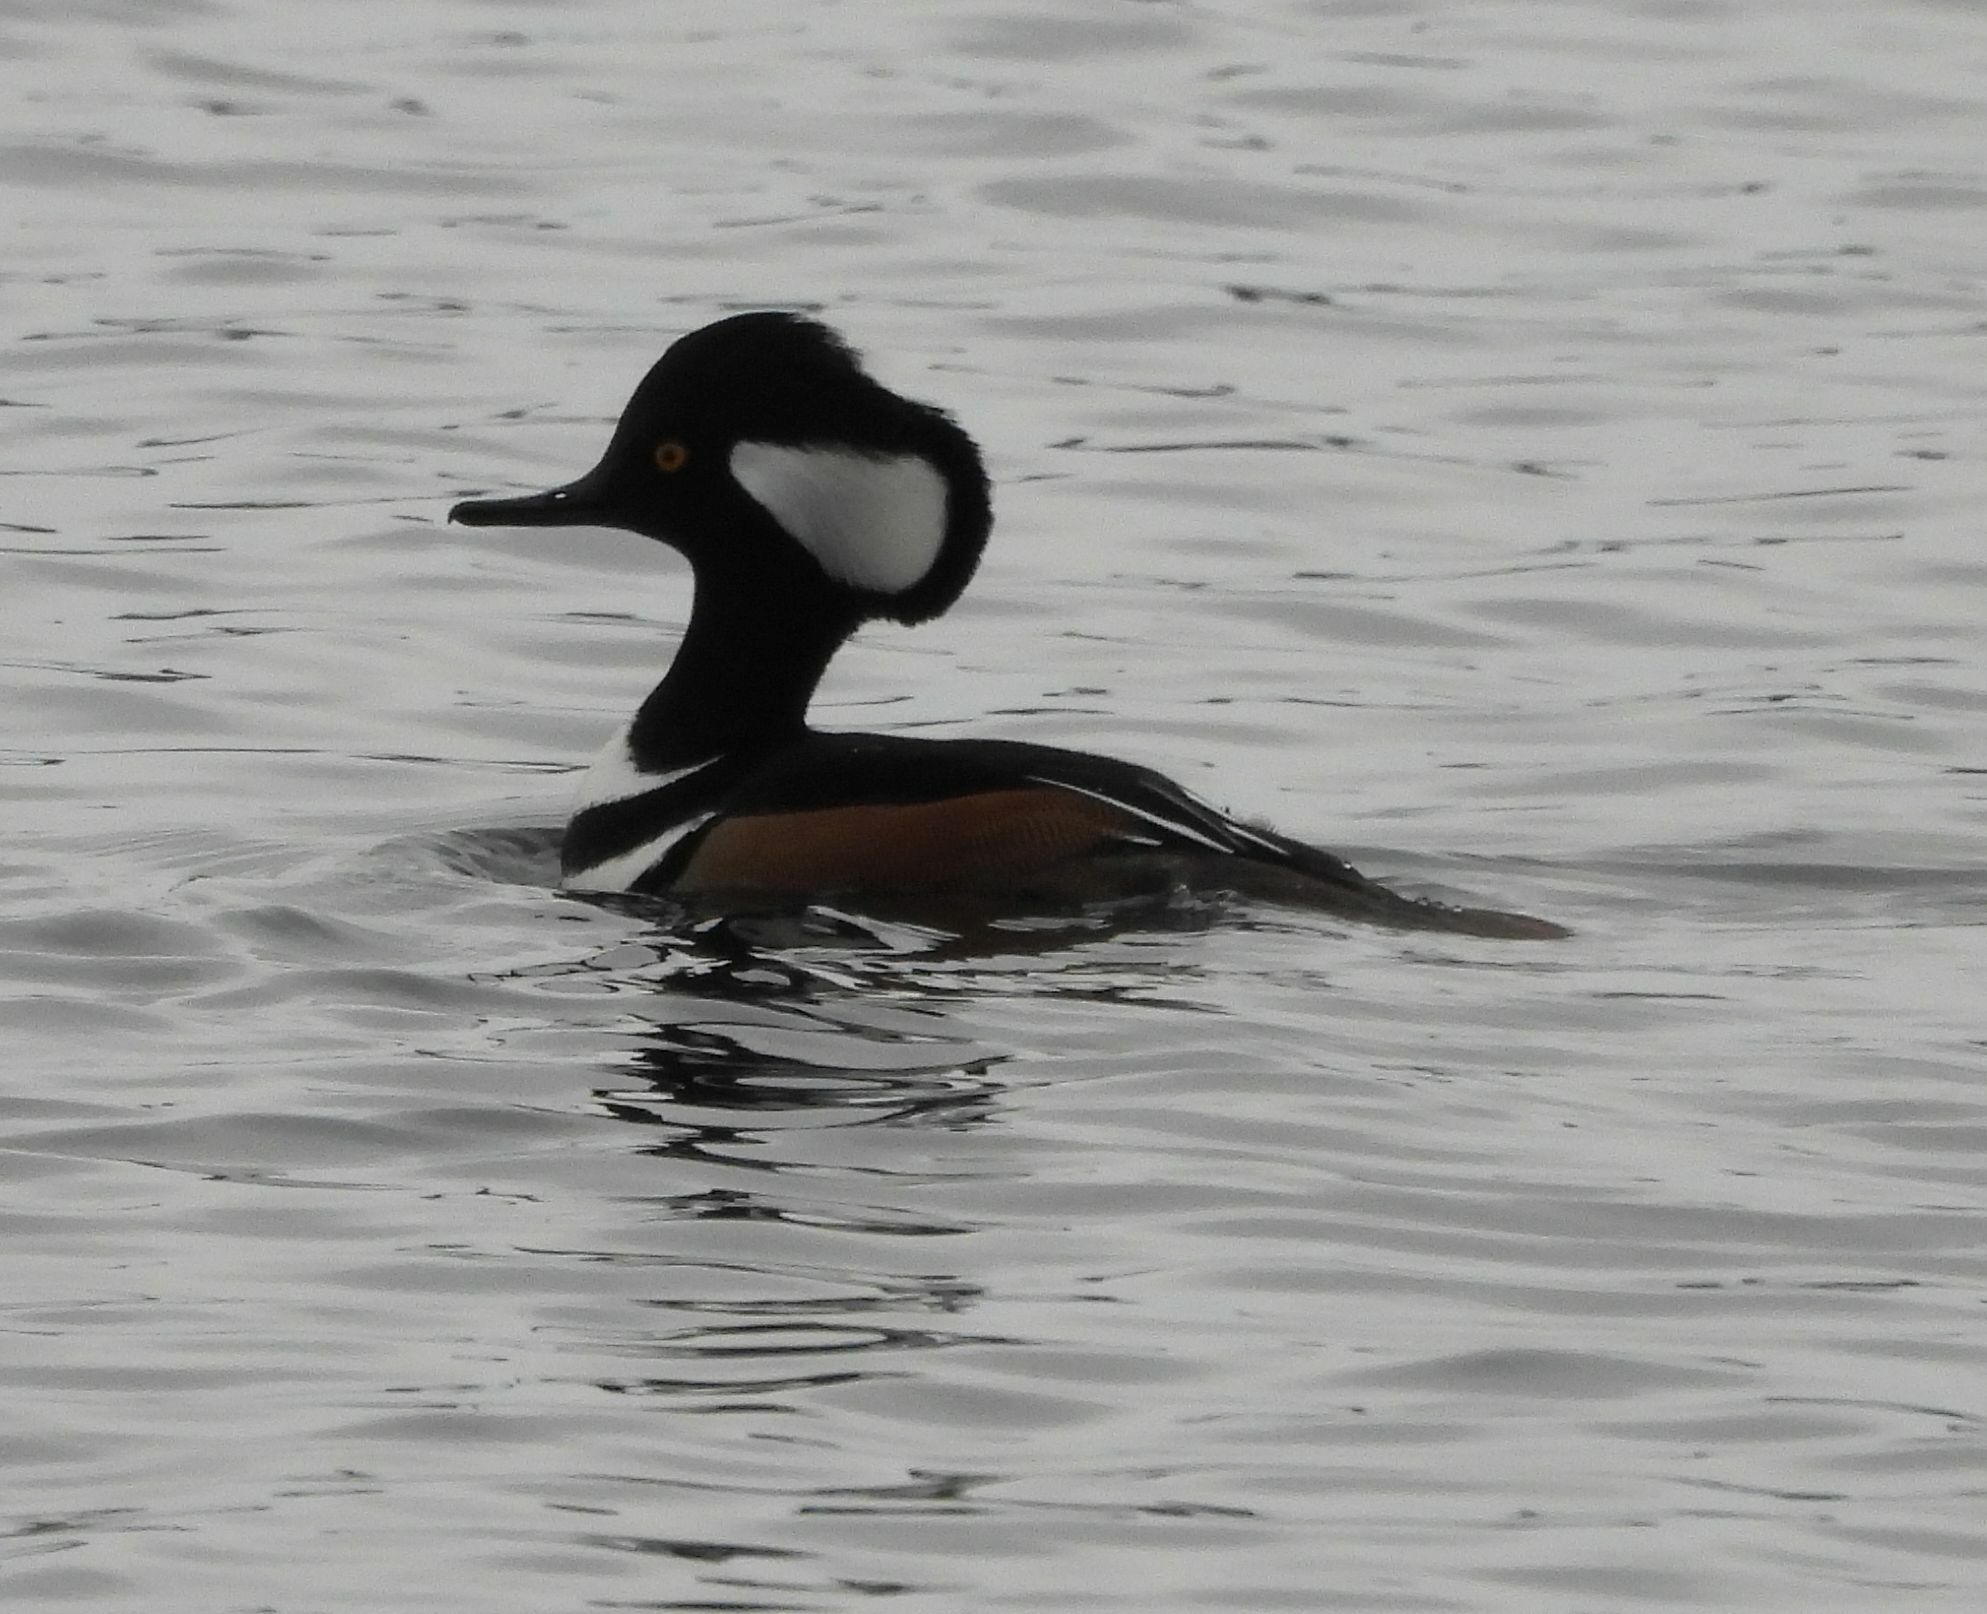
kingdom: Animalia
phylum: Chordata
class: Aves
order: Anseriformes
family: Anatidae
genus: Lophodytes
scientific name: Lophodytes cucullatus
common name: Hooded merganser
